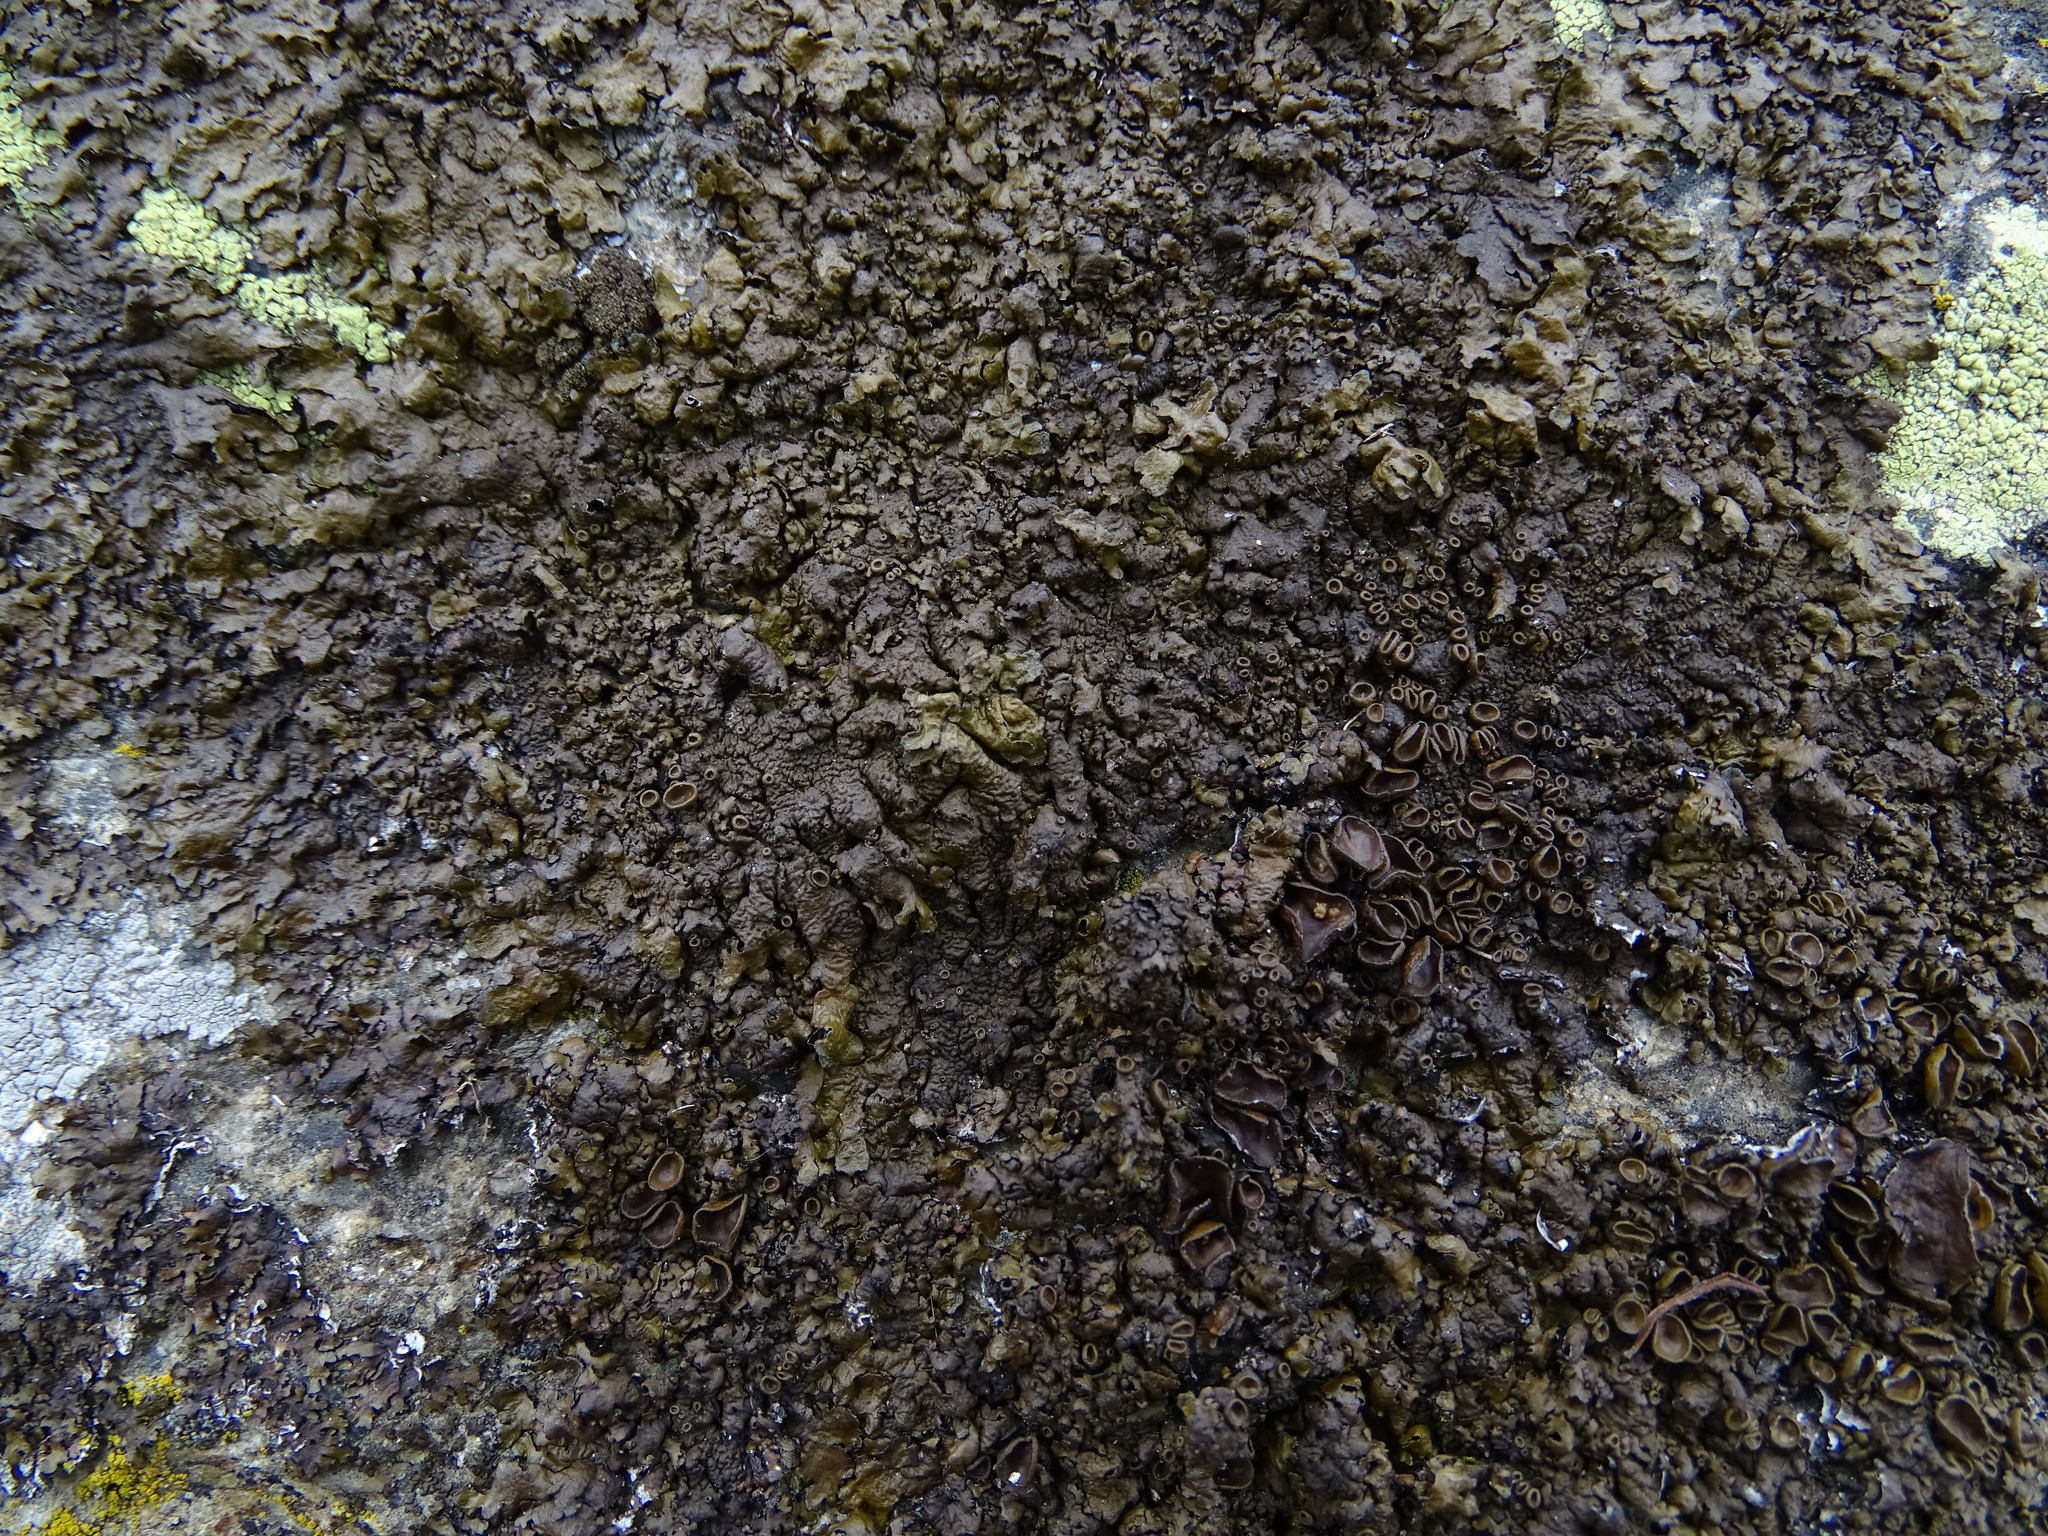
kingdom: Fungi
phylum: Ascomycota
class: Lecanoromycetes
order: Lecanorales
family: Parmeliaceae
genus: Xanthoparmelia
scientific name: Xanthoparmelia pulla
